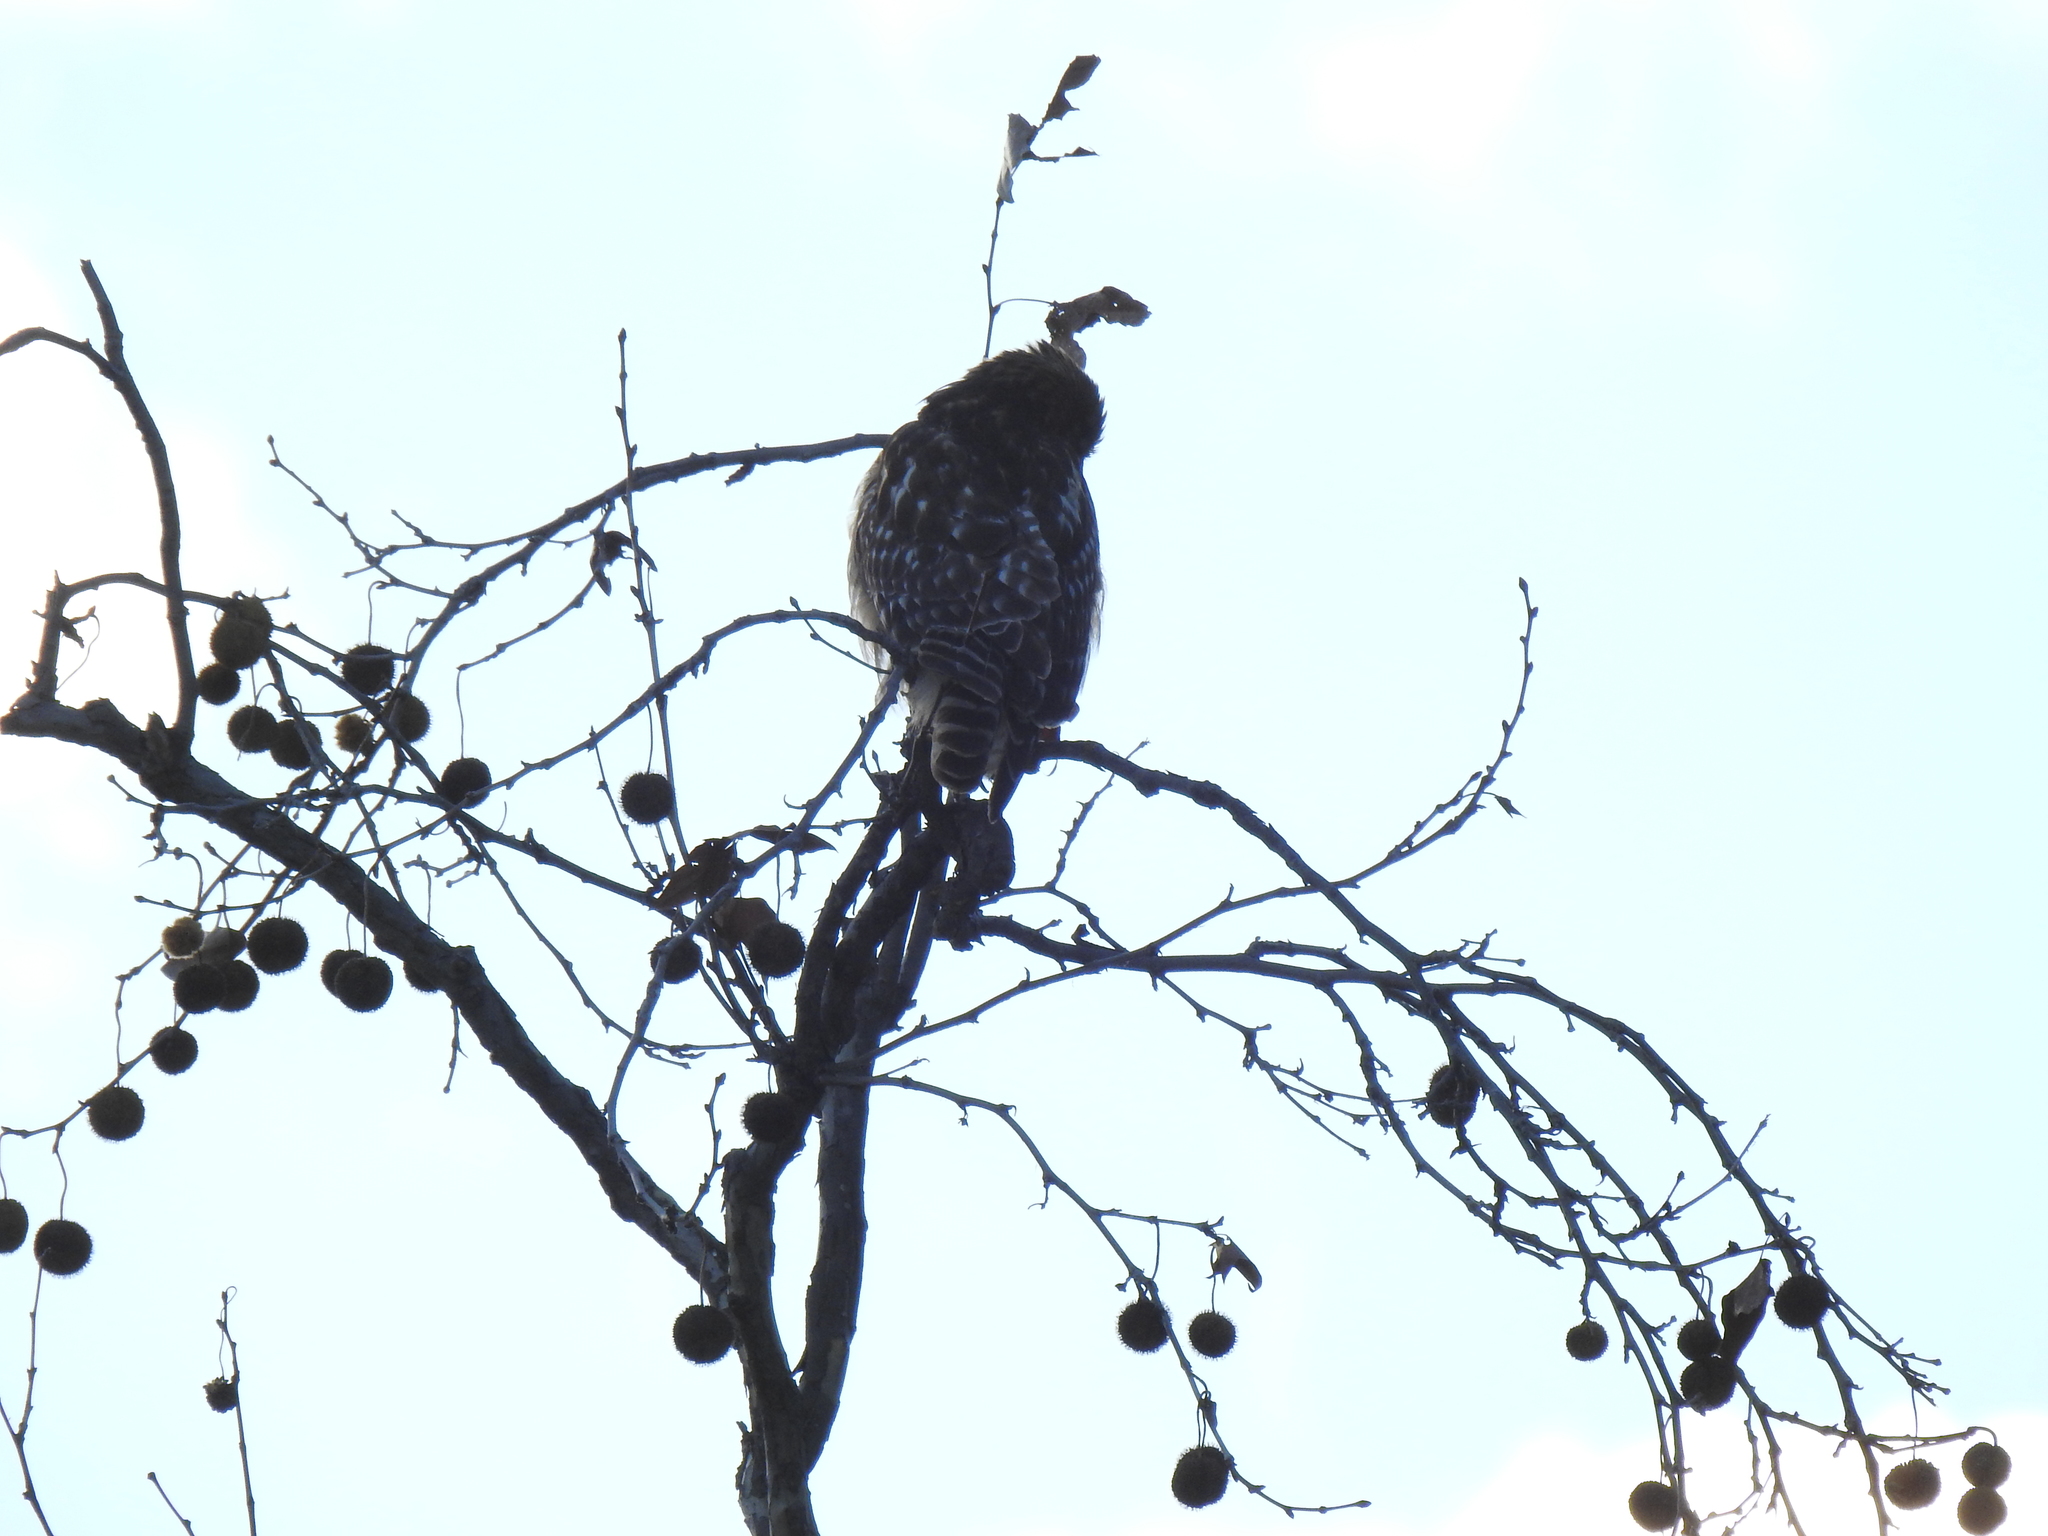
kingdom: Animalia
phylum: Chordata
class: Aves
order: Accipitriformes
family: Accipitridae
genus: Buteo
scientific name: Buteo lineatus
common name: Red-shouldered hawk
